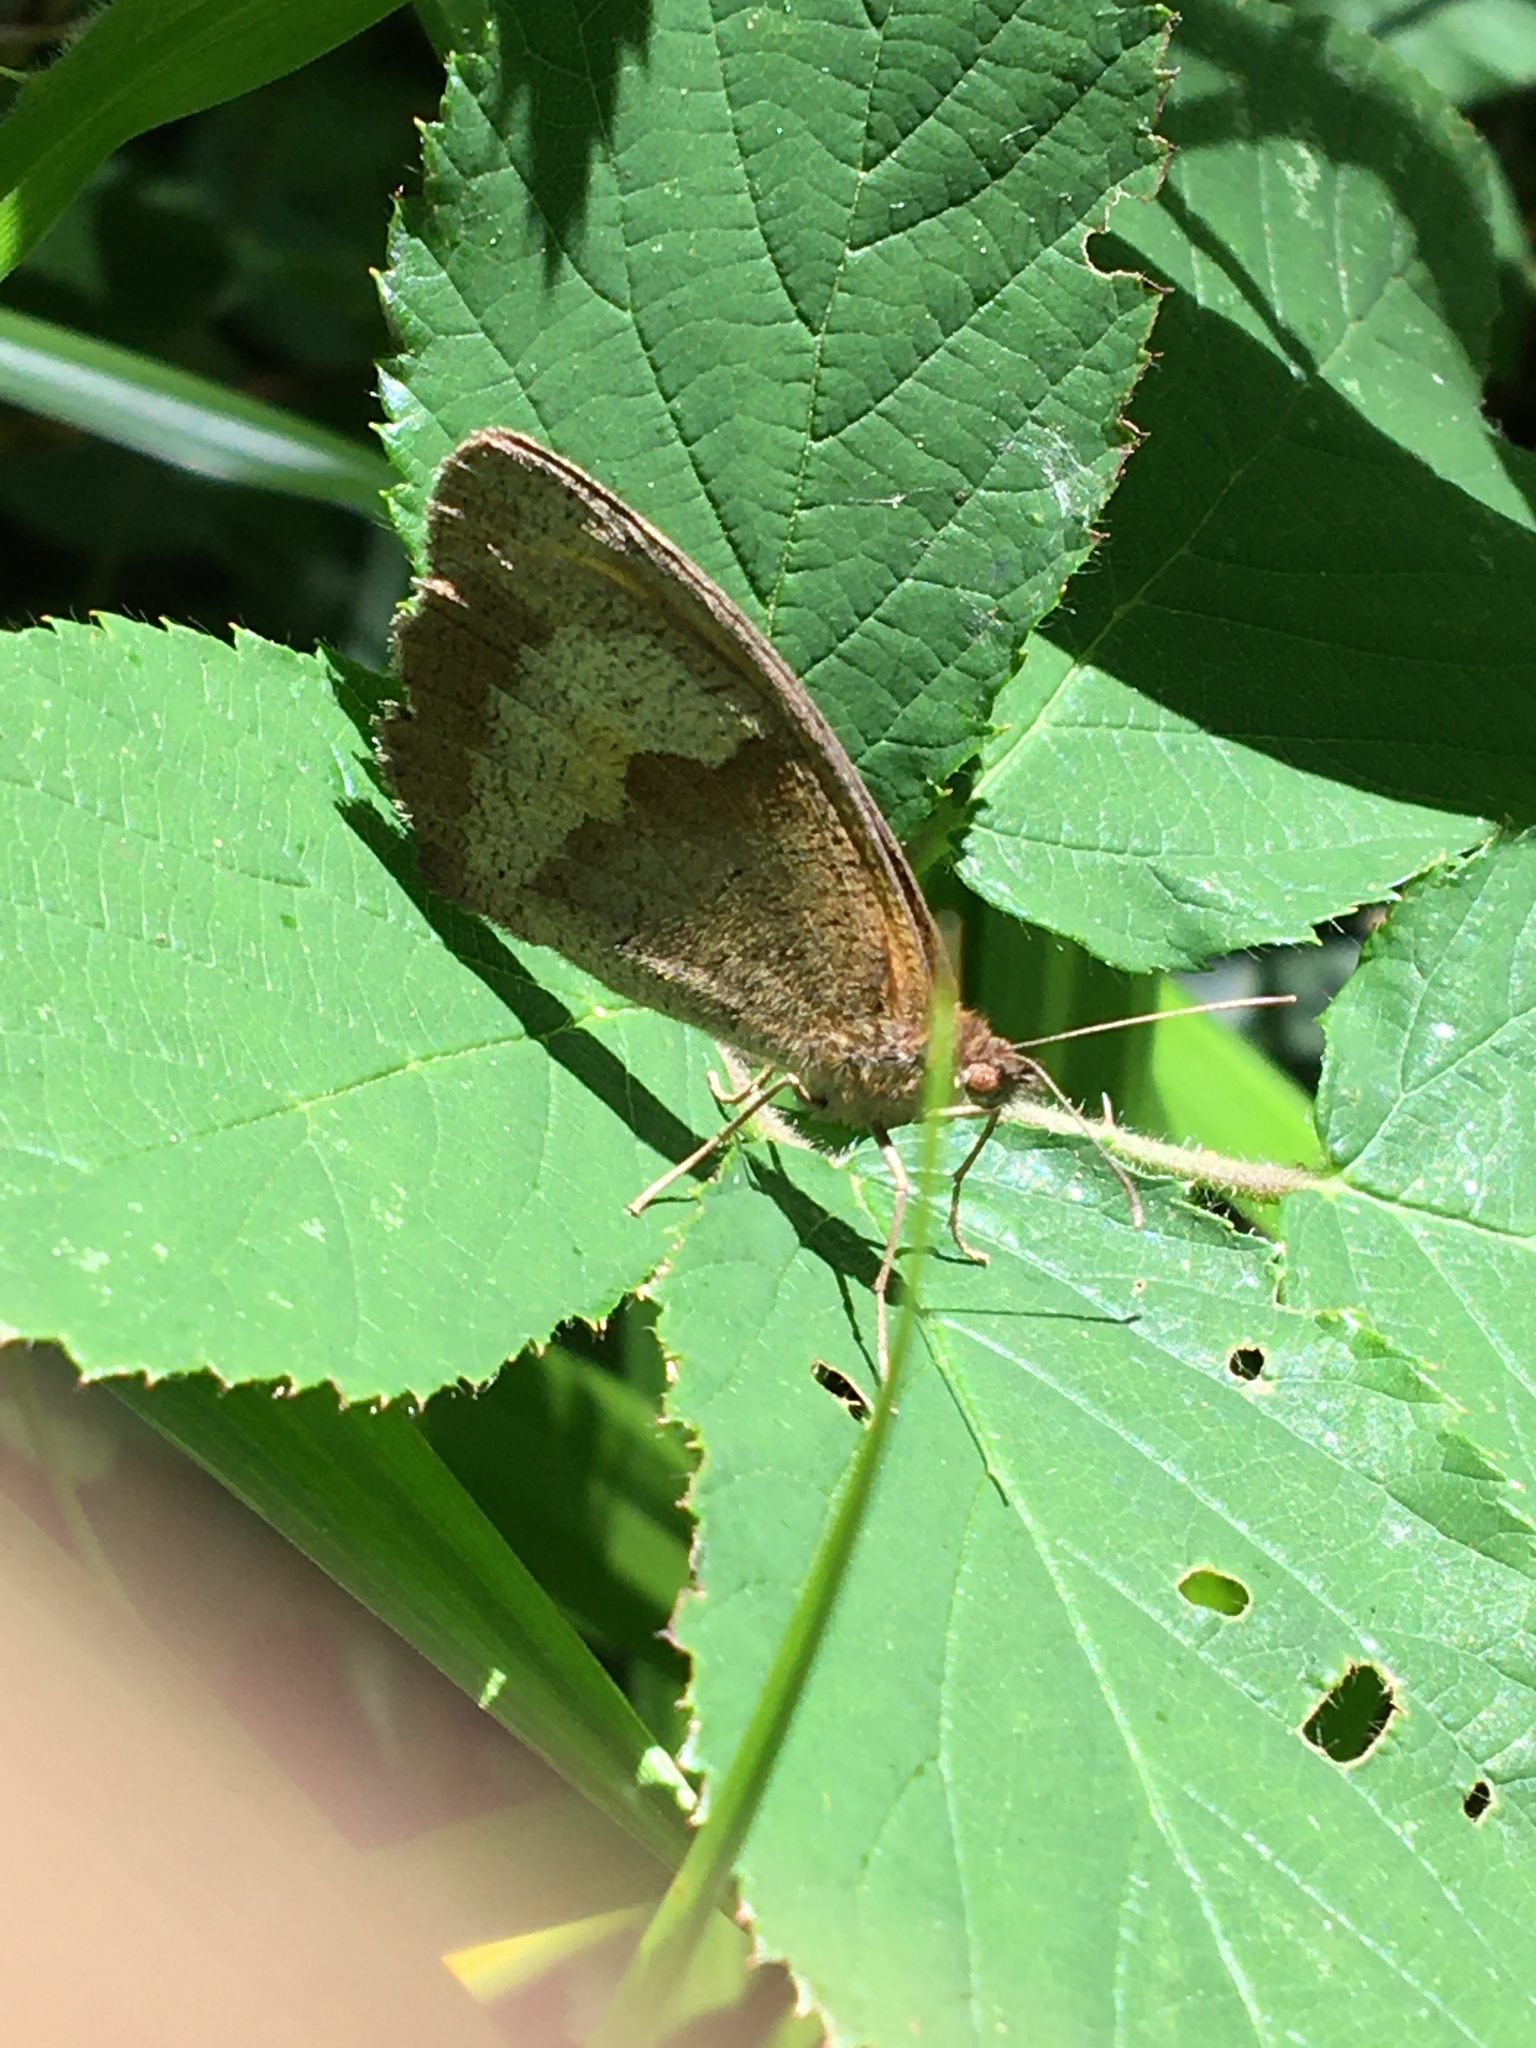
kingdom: Animalia
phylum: Arthropoda
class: Insecta
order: Lepidoptera
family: Nymphalidae
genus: Maniola
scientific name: Maniola jurtina
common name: Meadow brown
